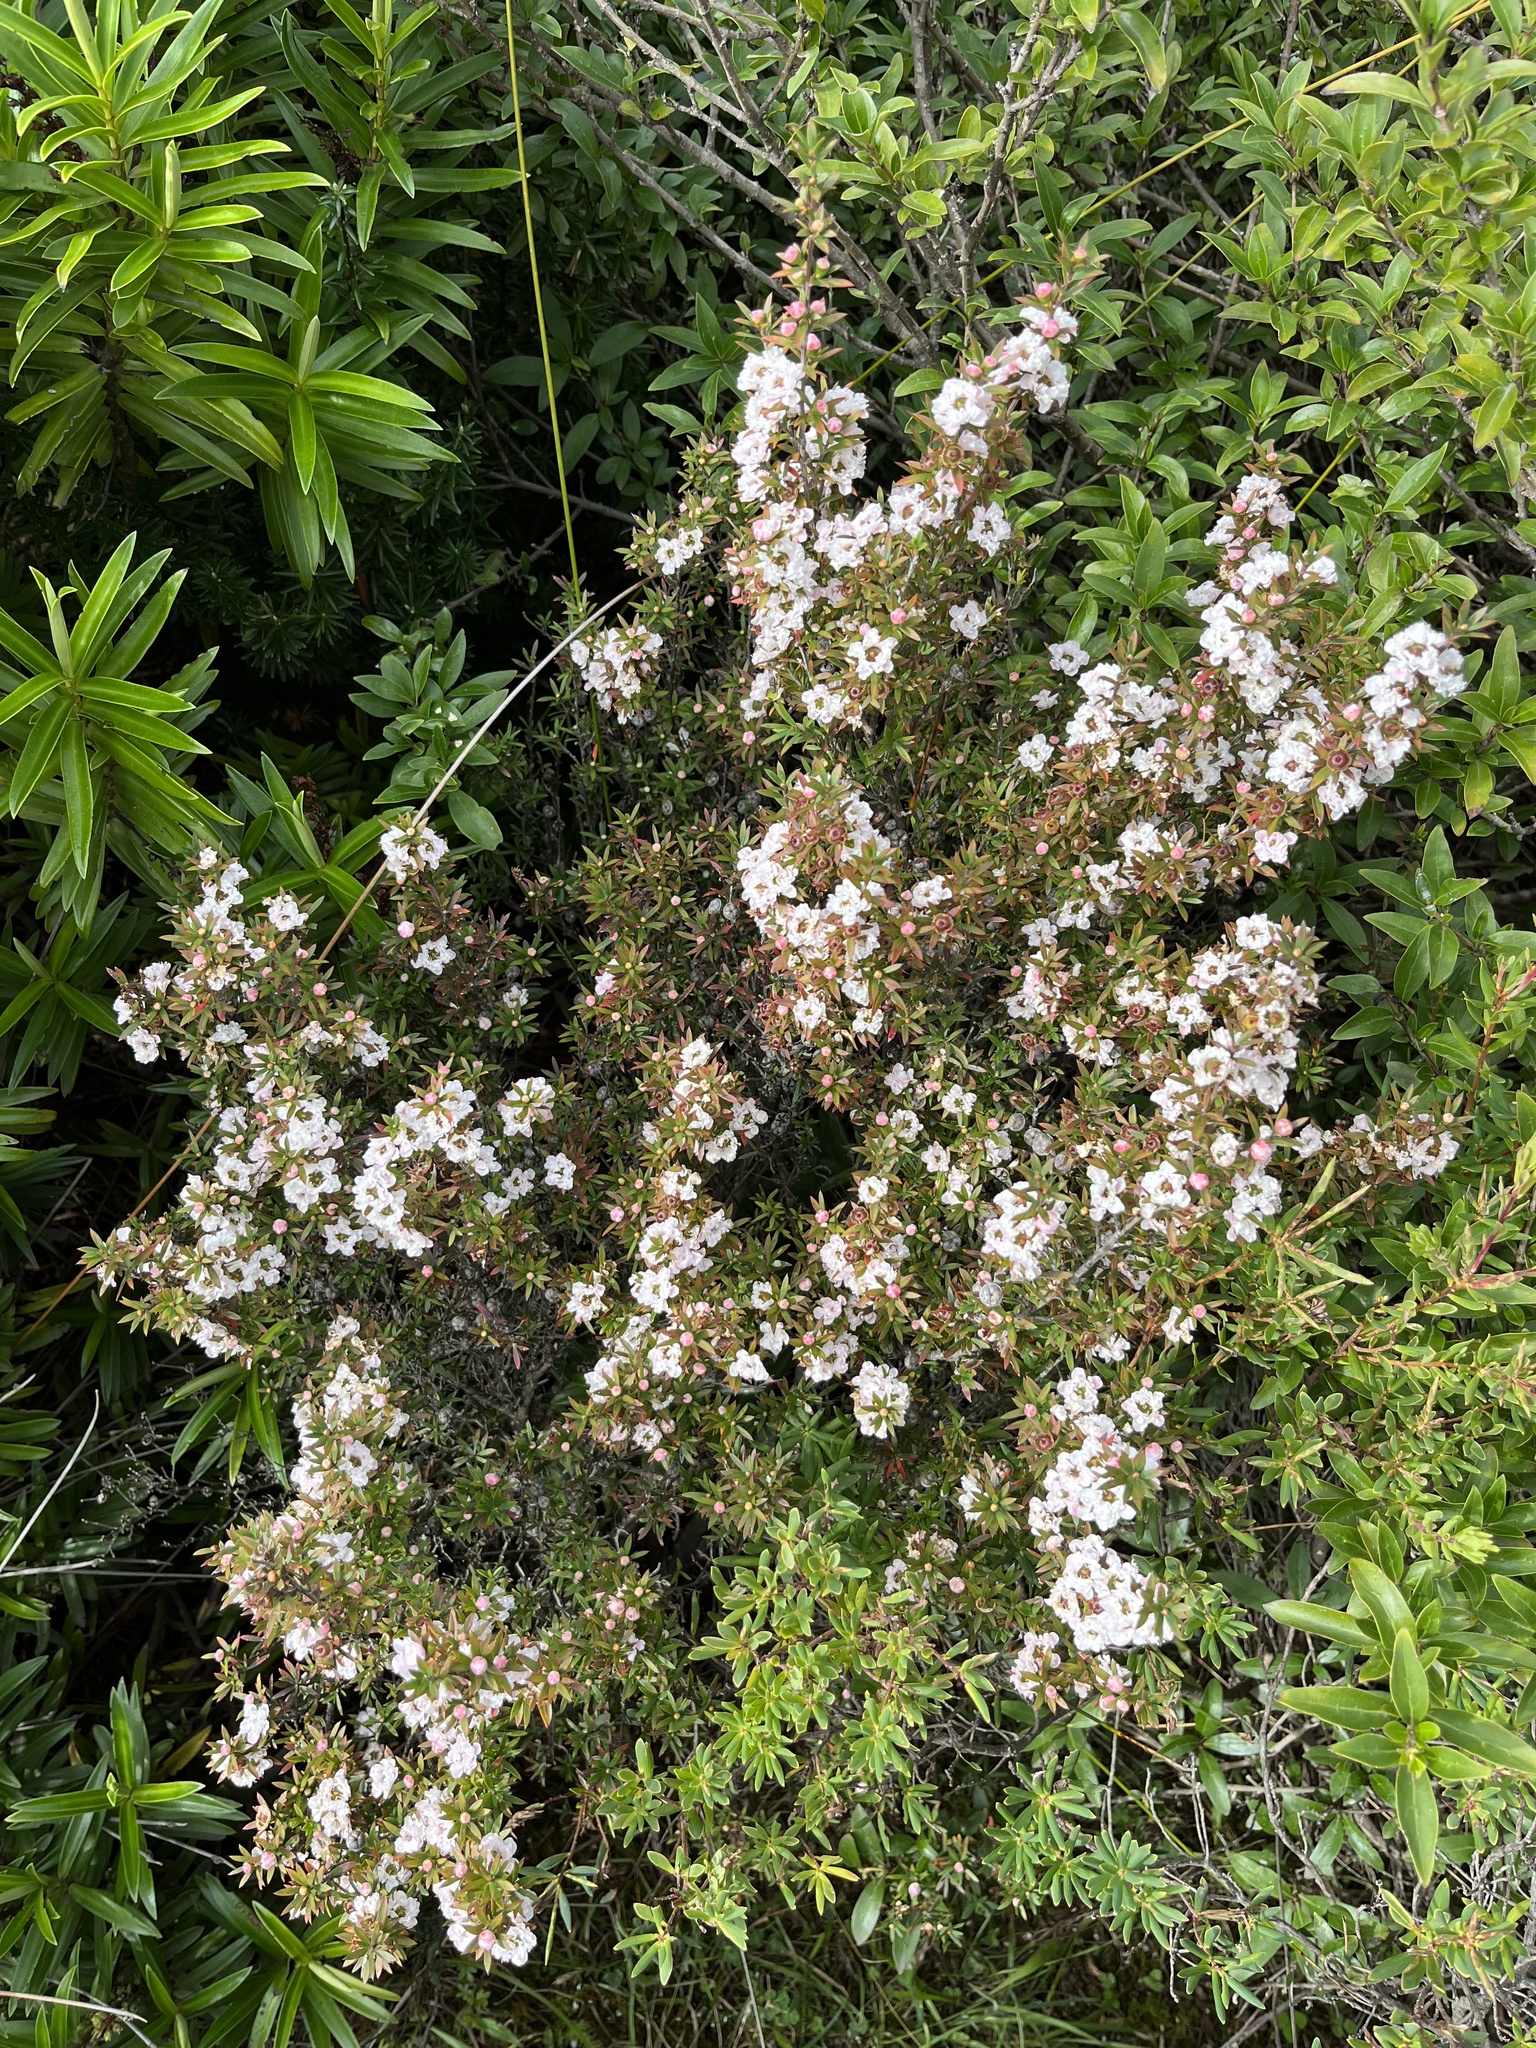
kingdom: Plantae
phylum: Tracheophyta
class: Magnoliopsida
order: Myrtales
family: Myrtaceae
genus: Leptospermum
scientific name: Leptospermum scoparium
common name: Broom tea-tree
